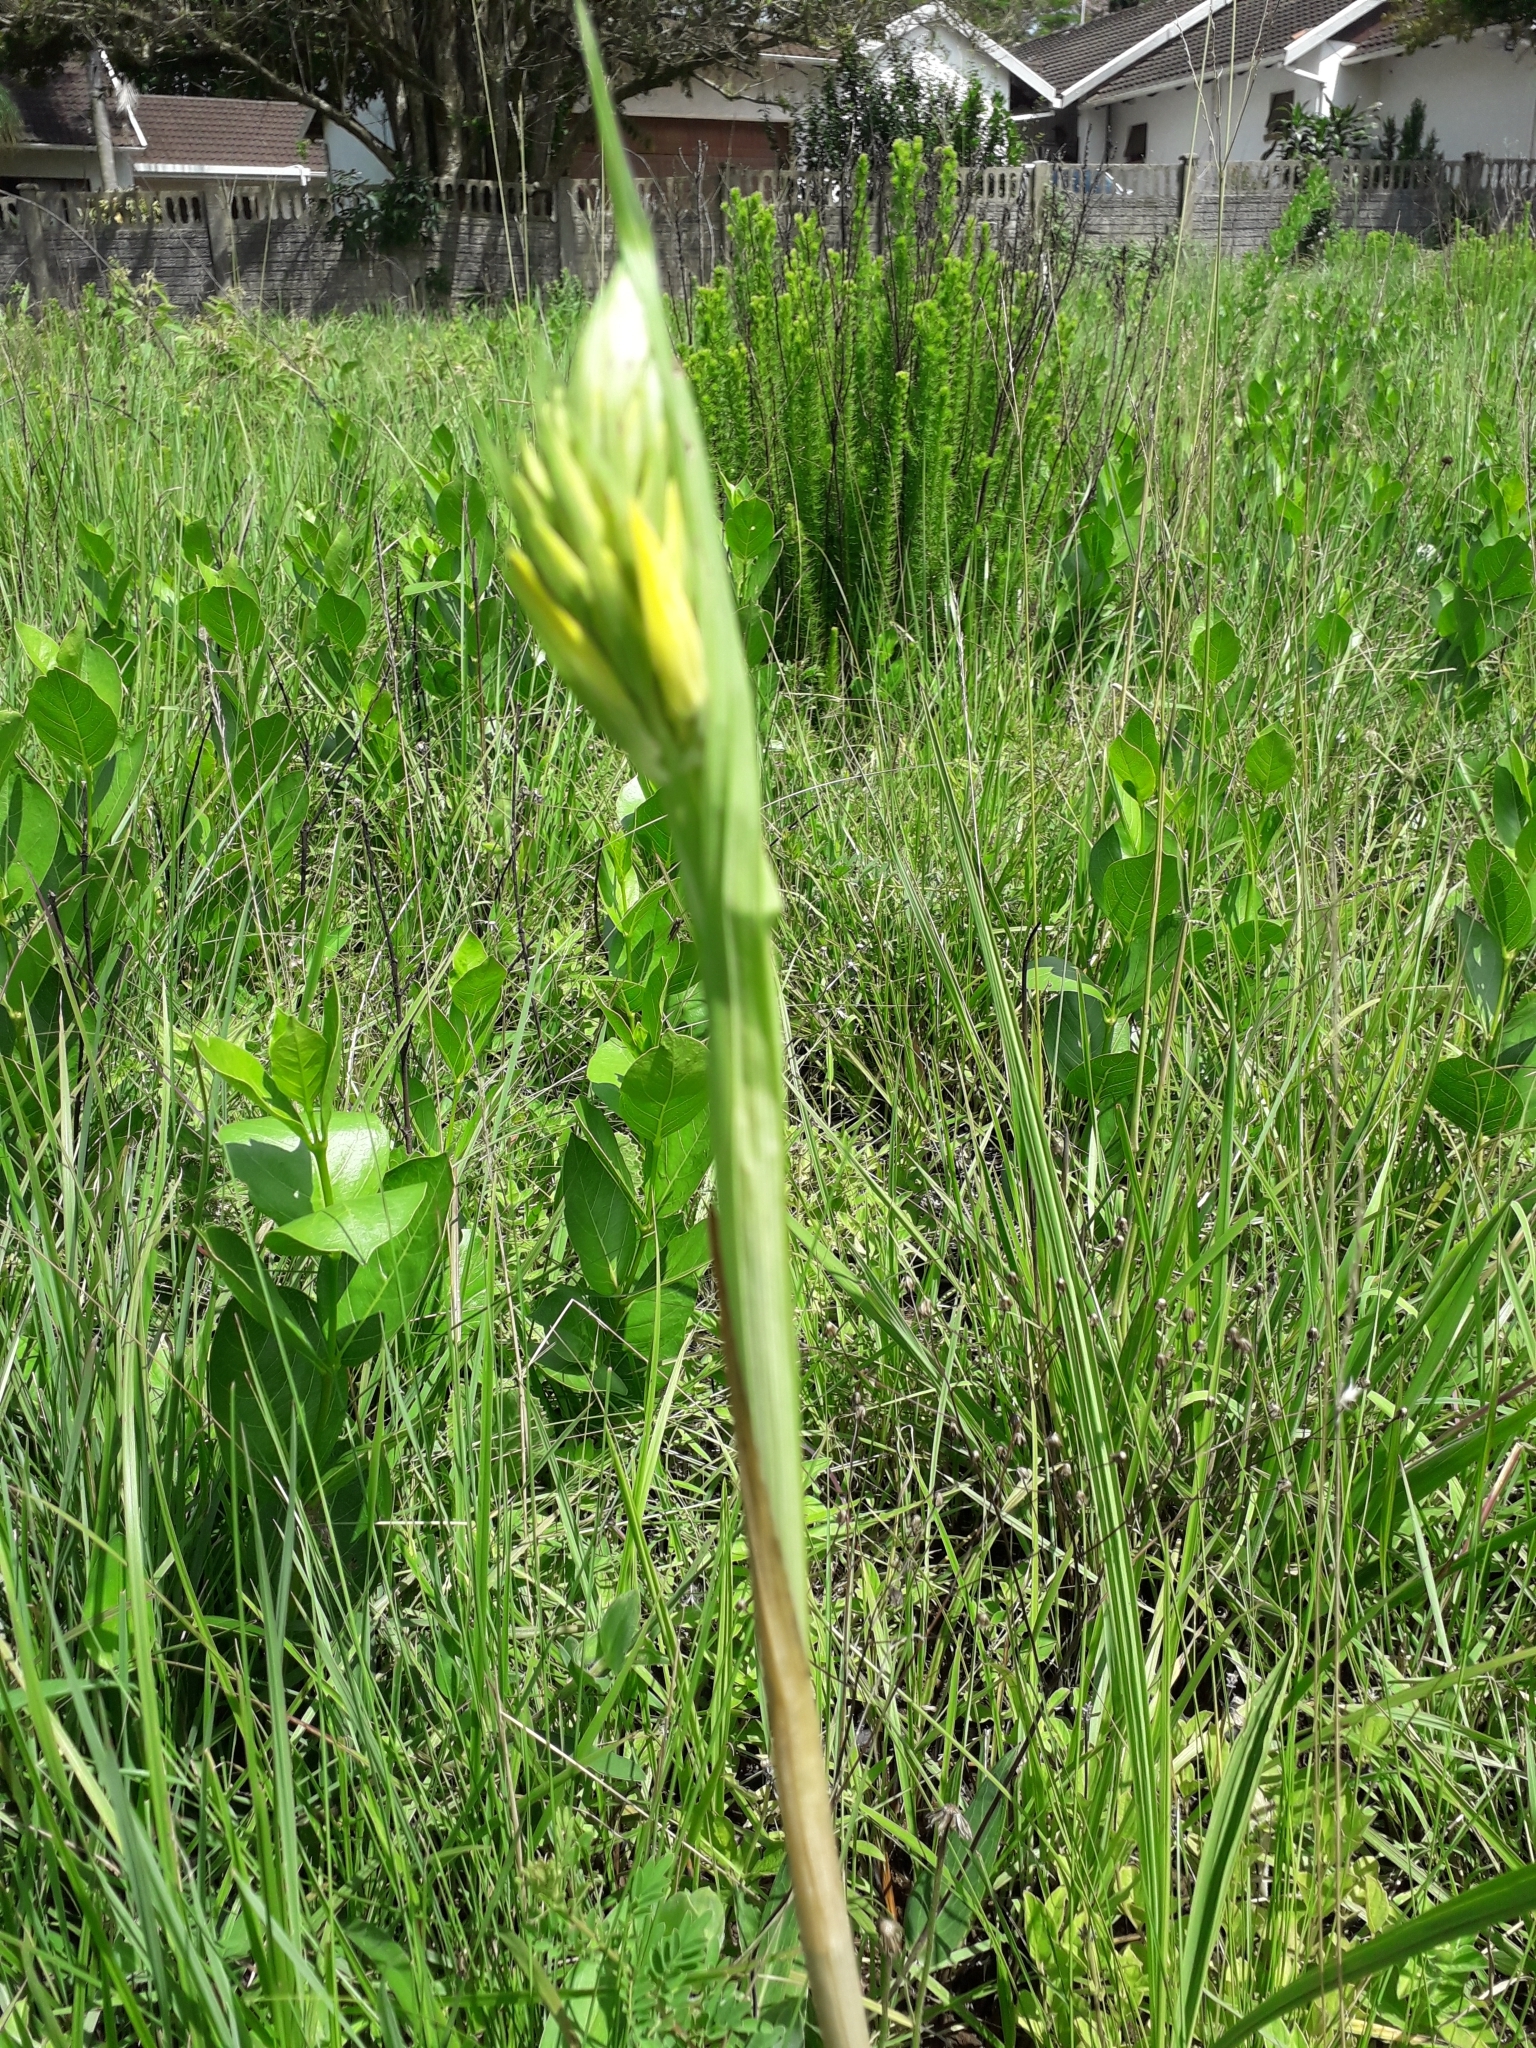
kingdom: Plantae
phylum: Tracheophyta
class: Liliopsida
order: Asparagales
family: Orchidaceae
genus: Eulophia
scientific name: Eulophia ensata
